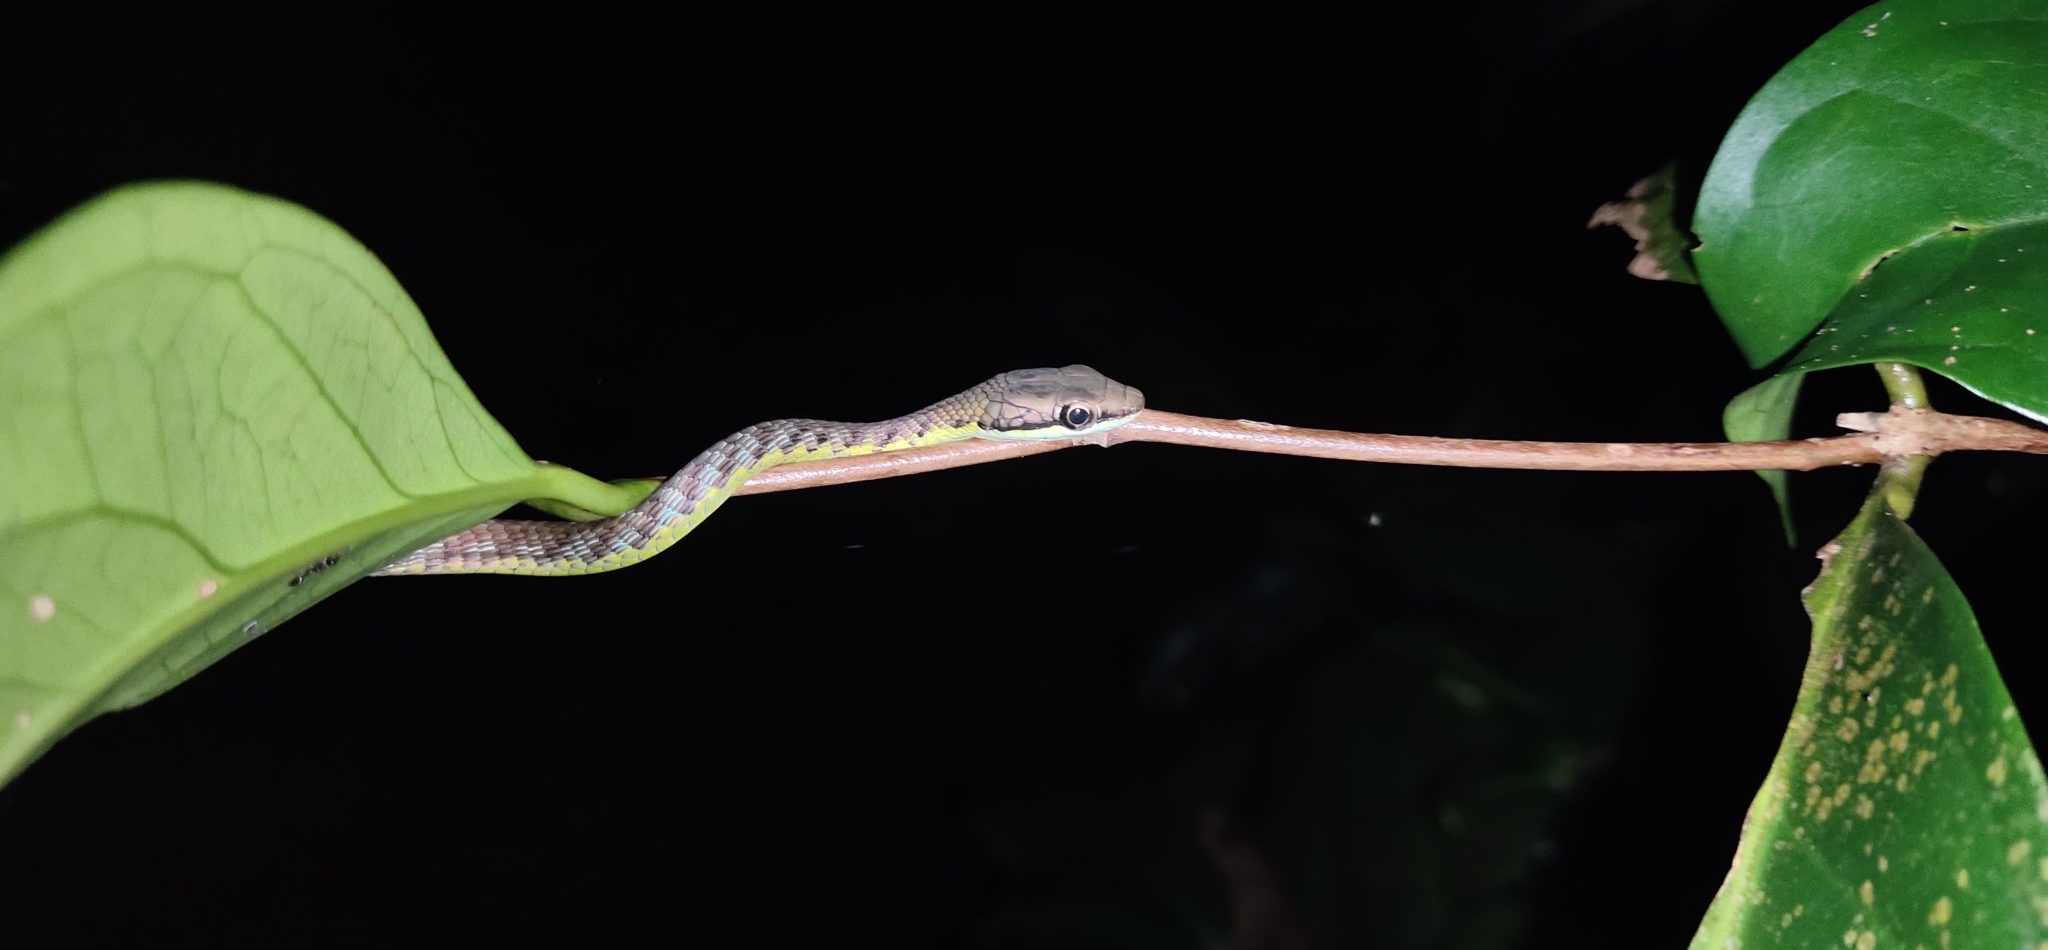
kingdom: Animalia
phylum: Chordata
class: Squamata
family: Colubridae
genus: Dendrelaphis
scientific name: Dendrelaphis andamanensis
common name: Andaman bronze-back
